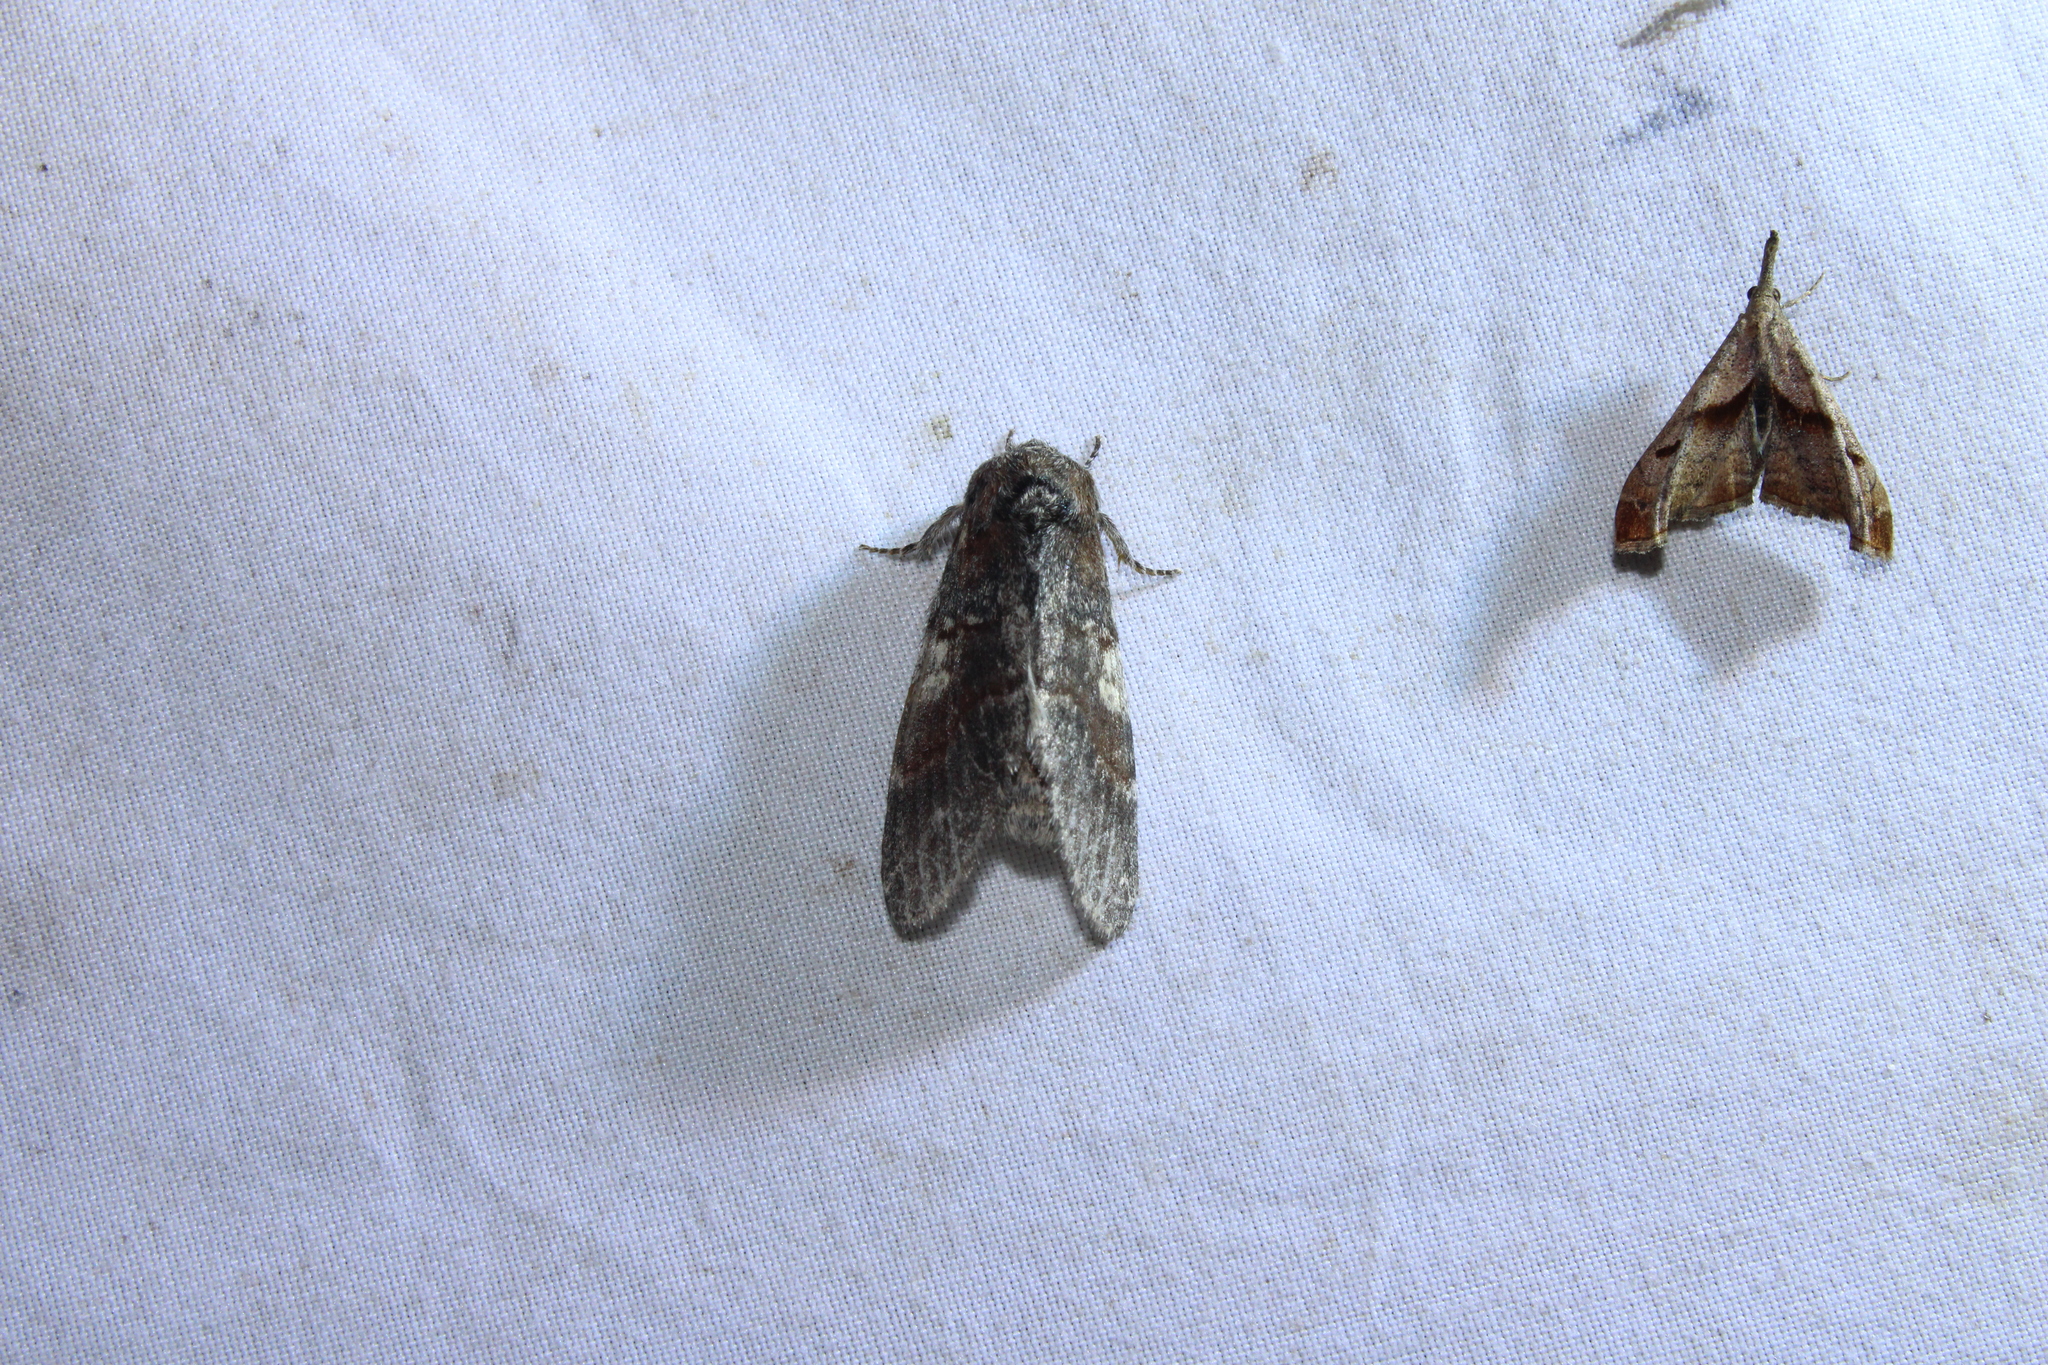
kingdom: Animalia
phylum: Arthropoda
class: Insecta
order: Lepidoptera
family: Notodontidae
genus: Peridea
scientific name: Peridea ferruginea
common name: Chocolate prominent
